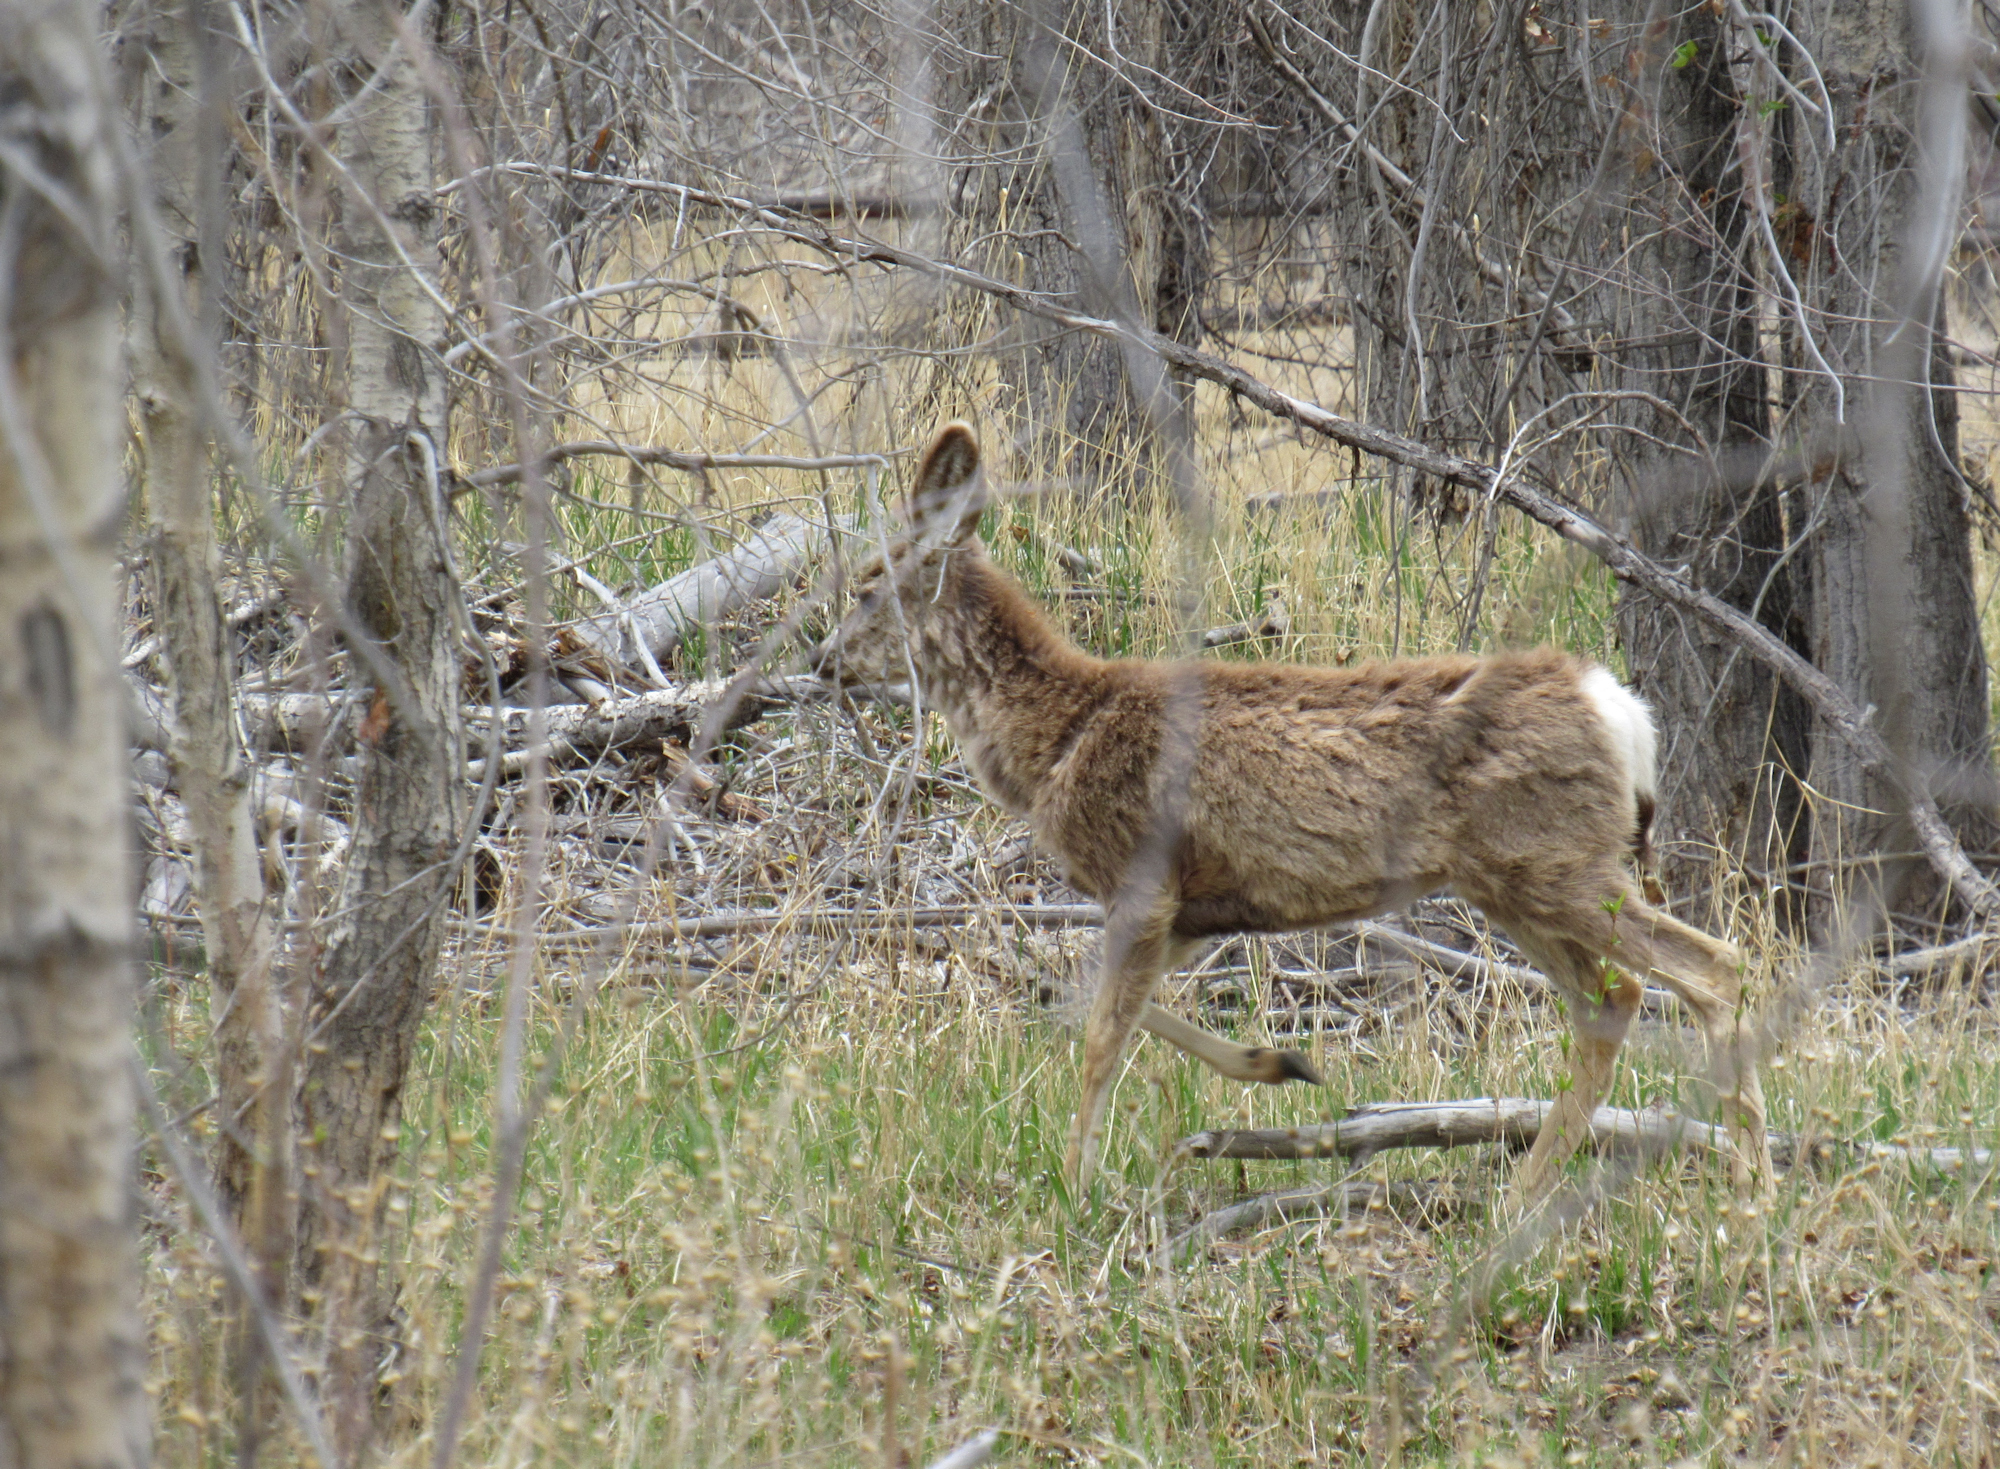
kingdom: Animalia
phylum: Chordata
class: Mammalia
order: Artiodactyla
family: Cervidae
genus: Odocoileus
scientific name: Odocoileus hemionus
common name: Mule deer
